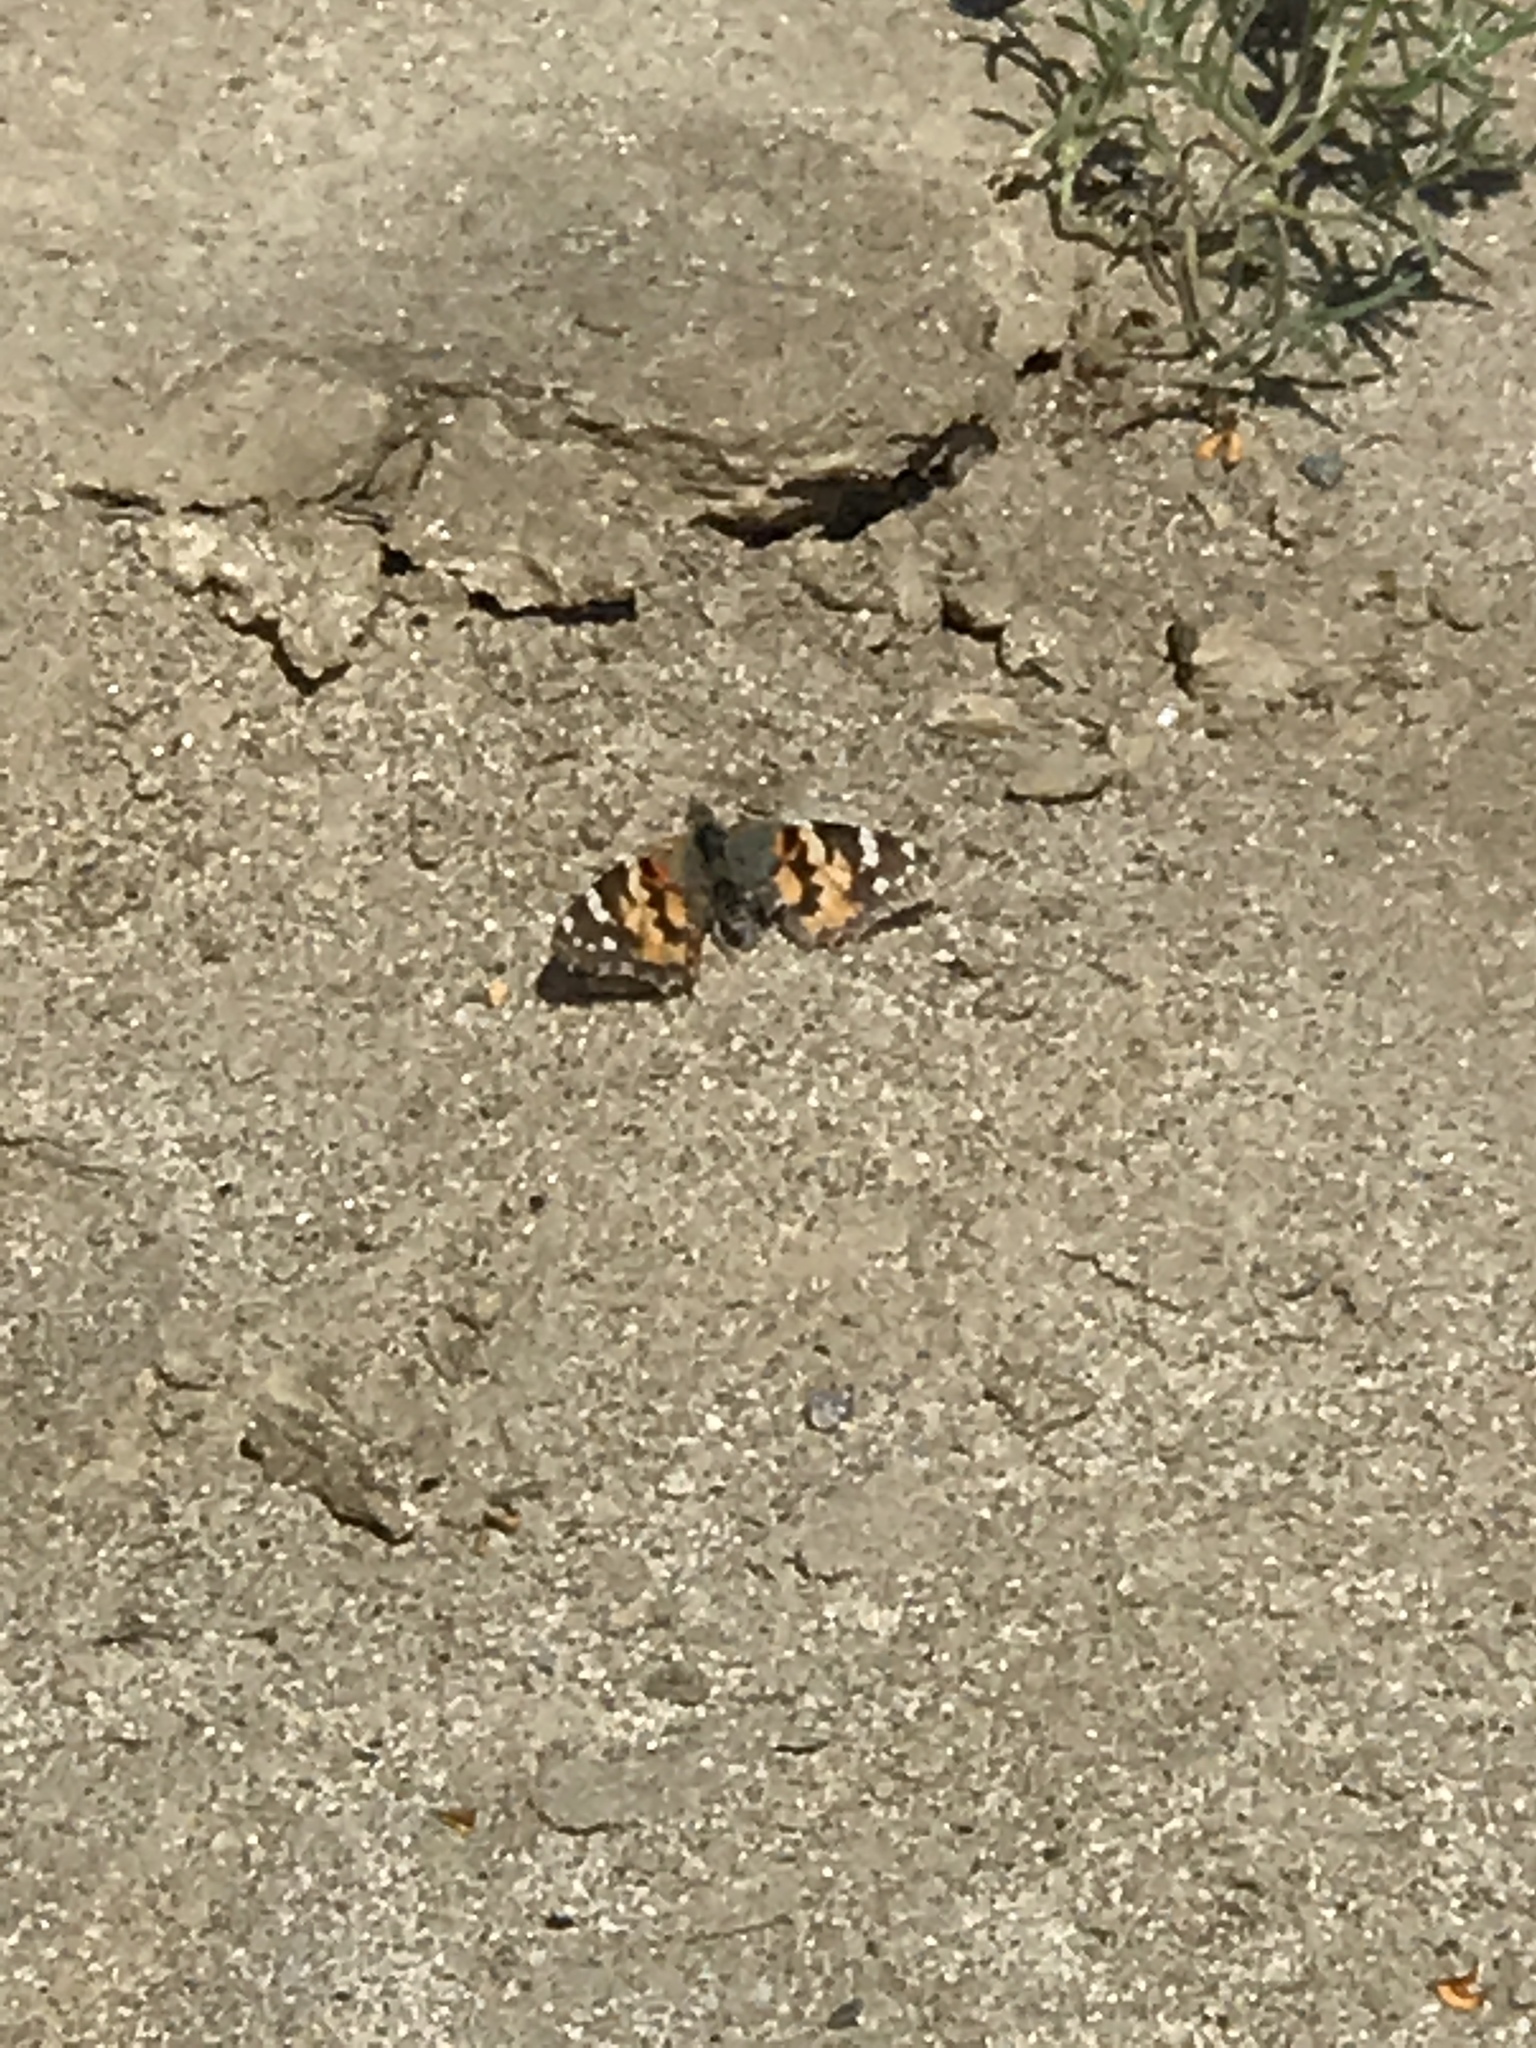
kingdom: Animalia
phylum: Arthropoda
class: Insecta
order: Lepidoptera
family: Nymphalidae
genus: Vanessa
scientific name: Vanessa cardui
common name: Painted lady
